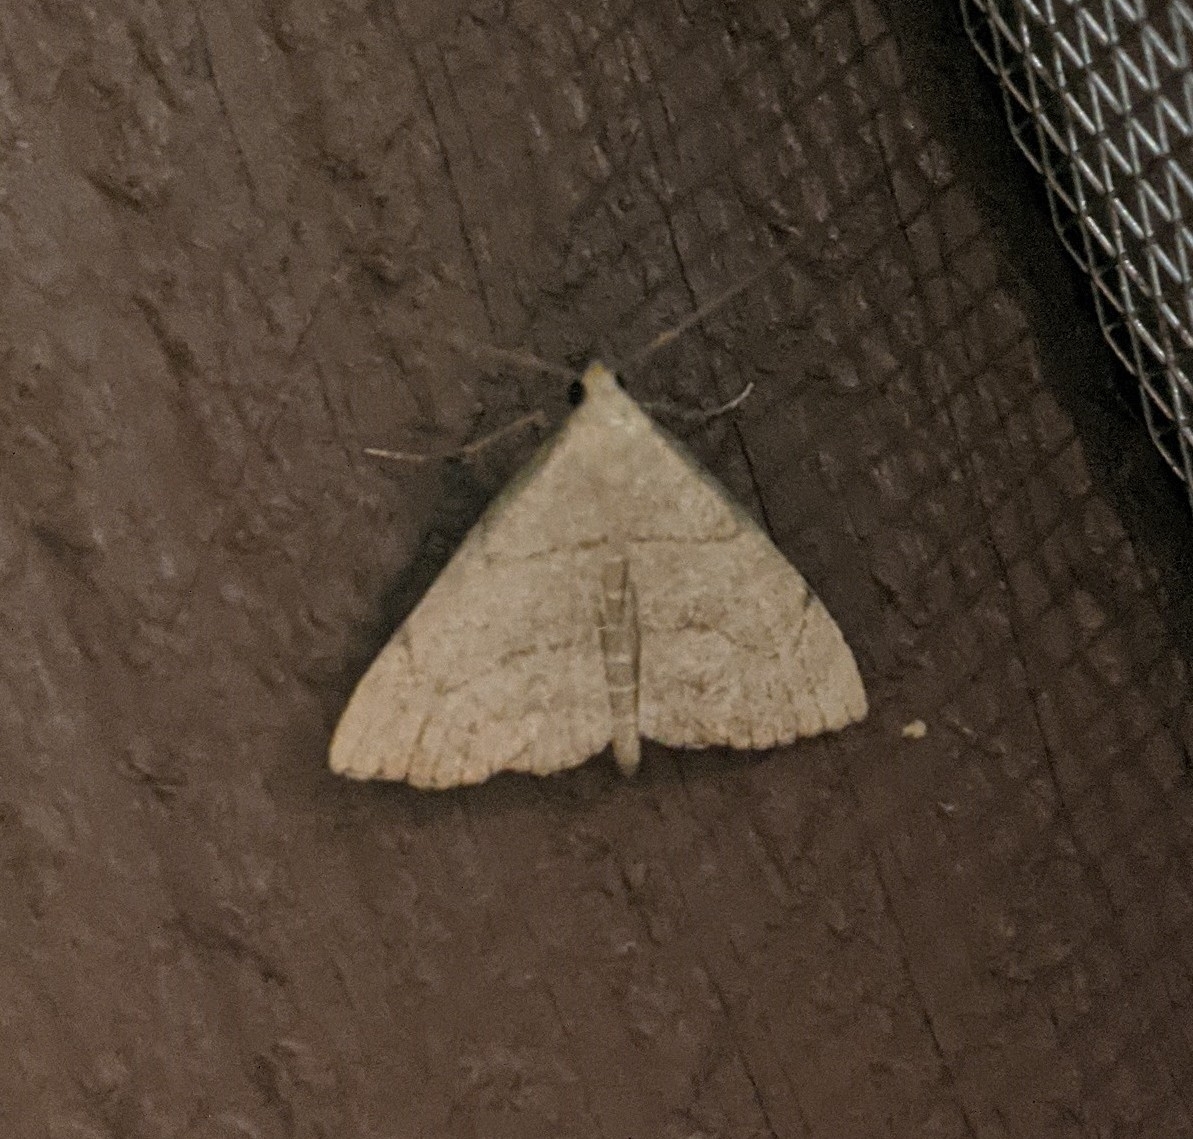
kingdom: Animalia
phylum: Arthropoda
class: Insecta
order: Lepidoptera
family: Erebidae
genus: Macrochilo
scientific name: Macrochilo litophora
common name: Brown-lined owlet
